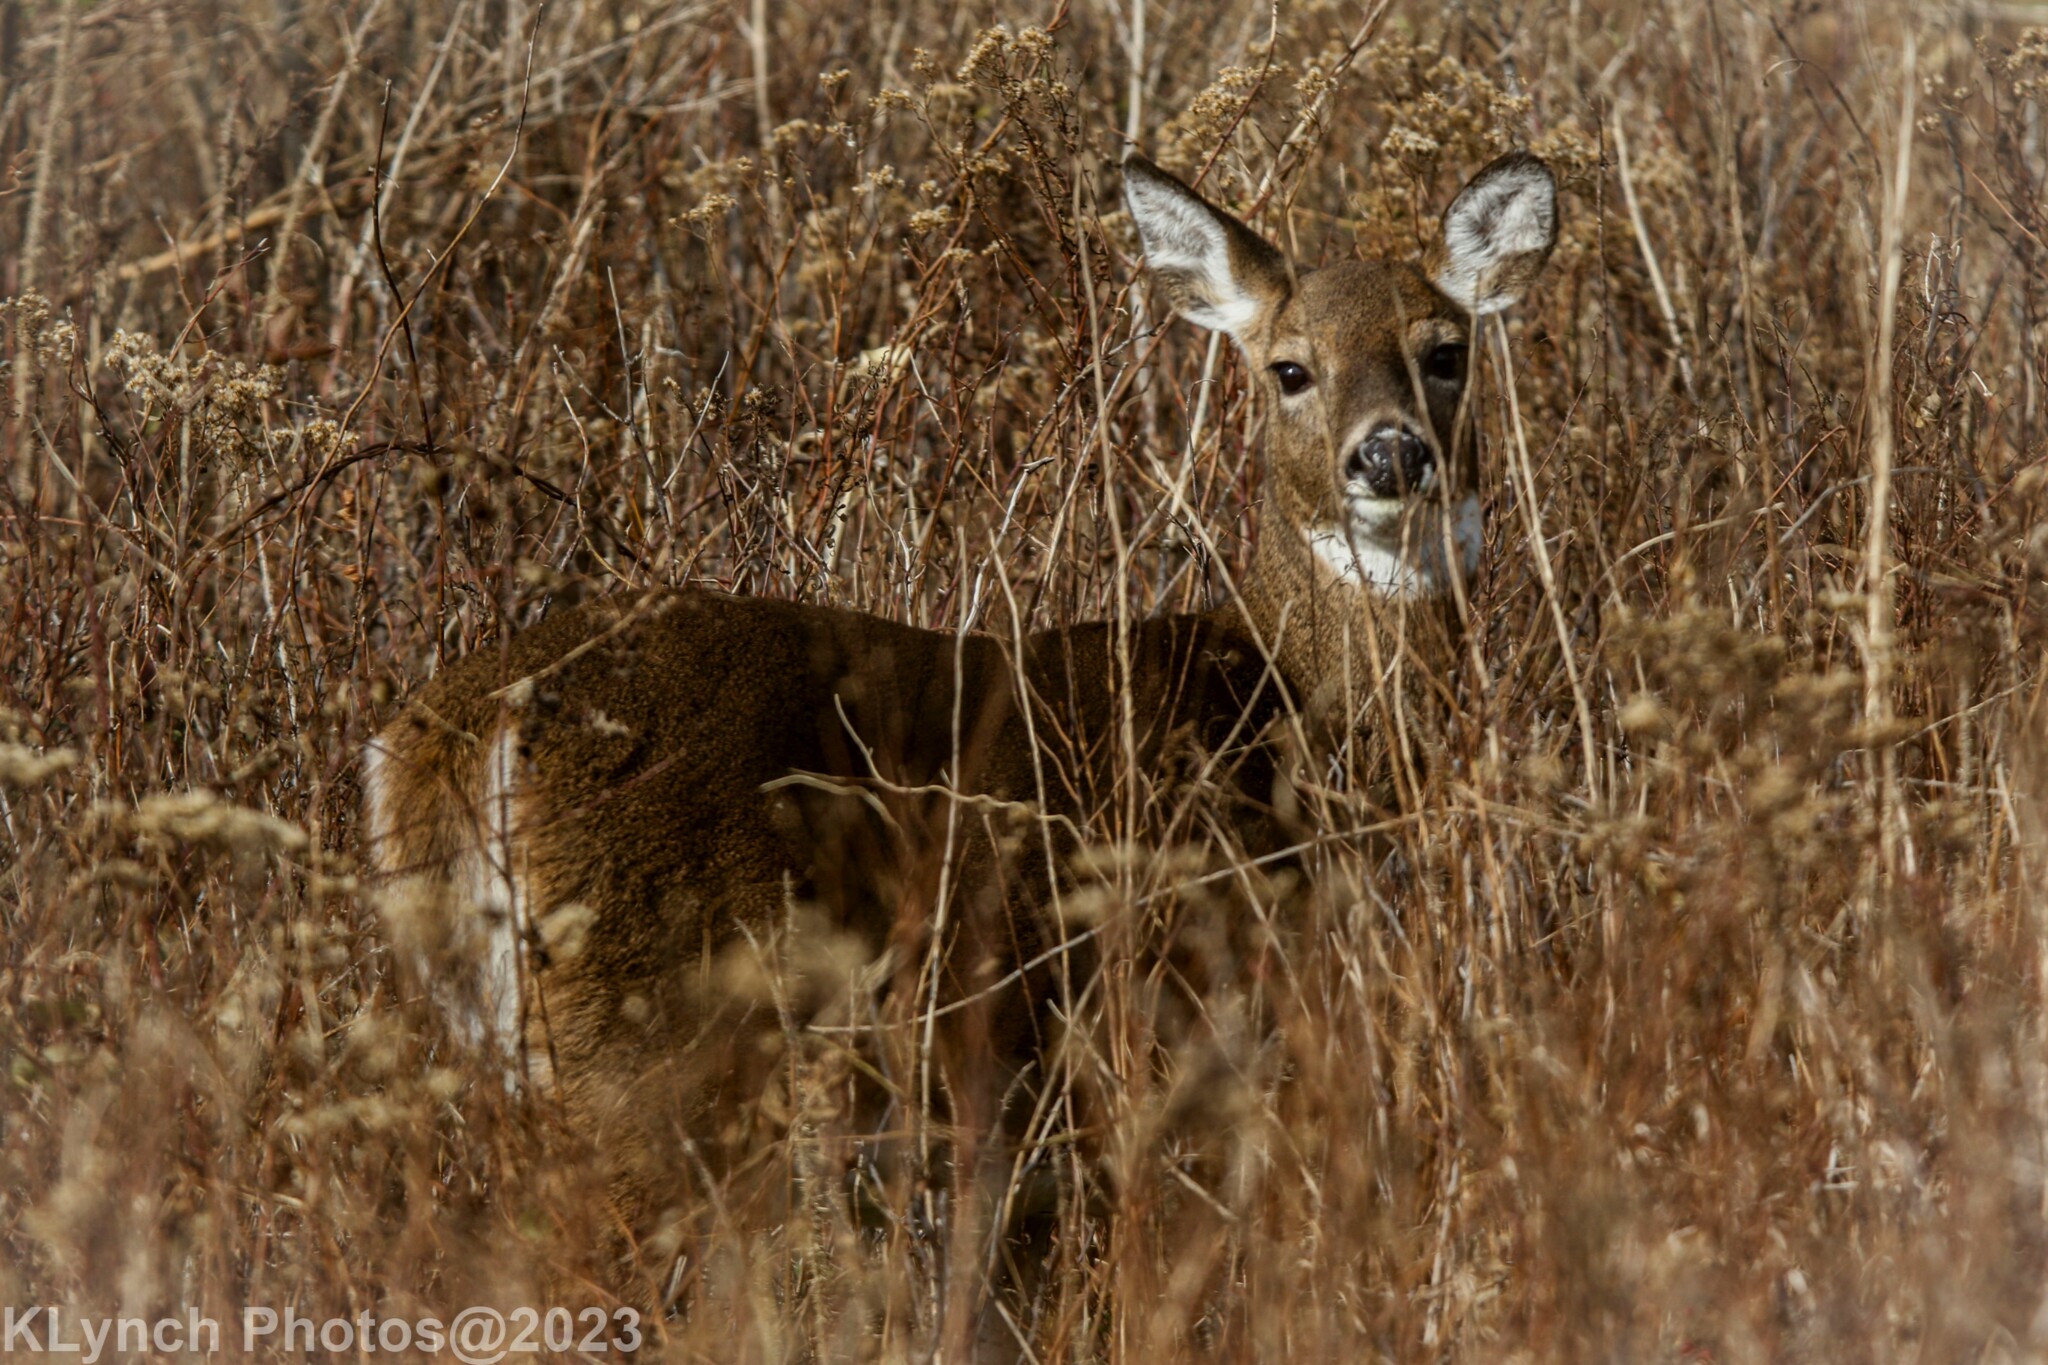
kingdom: Animalia
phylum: Chordata
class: Mammalia
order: Artiodactyla
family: Cervidae
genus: Odocoileus
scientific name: Odocoileus virginianus
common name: White-tailed deer
